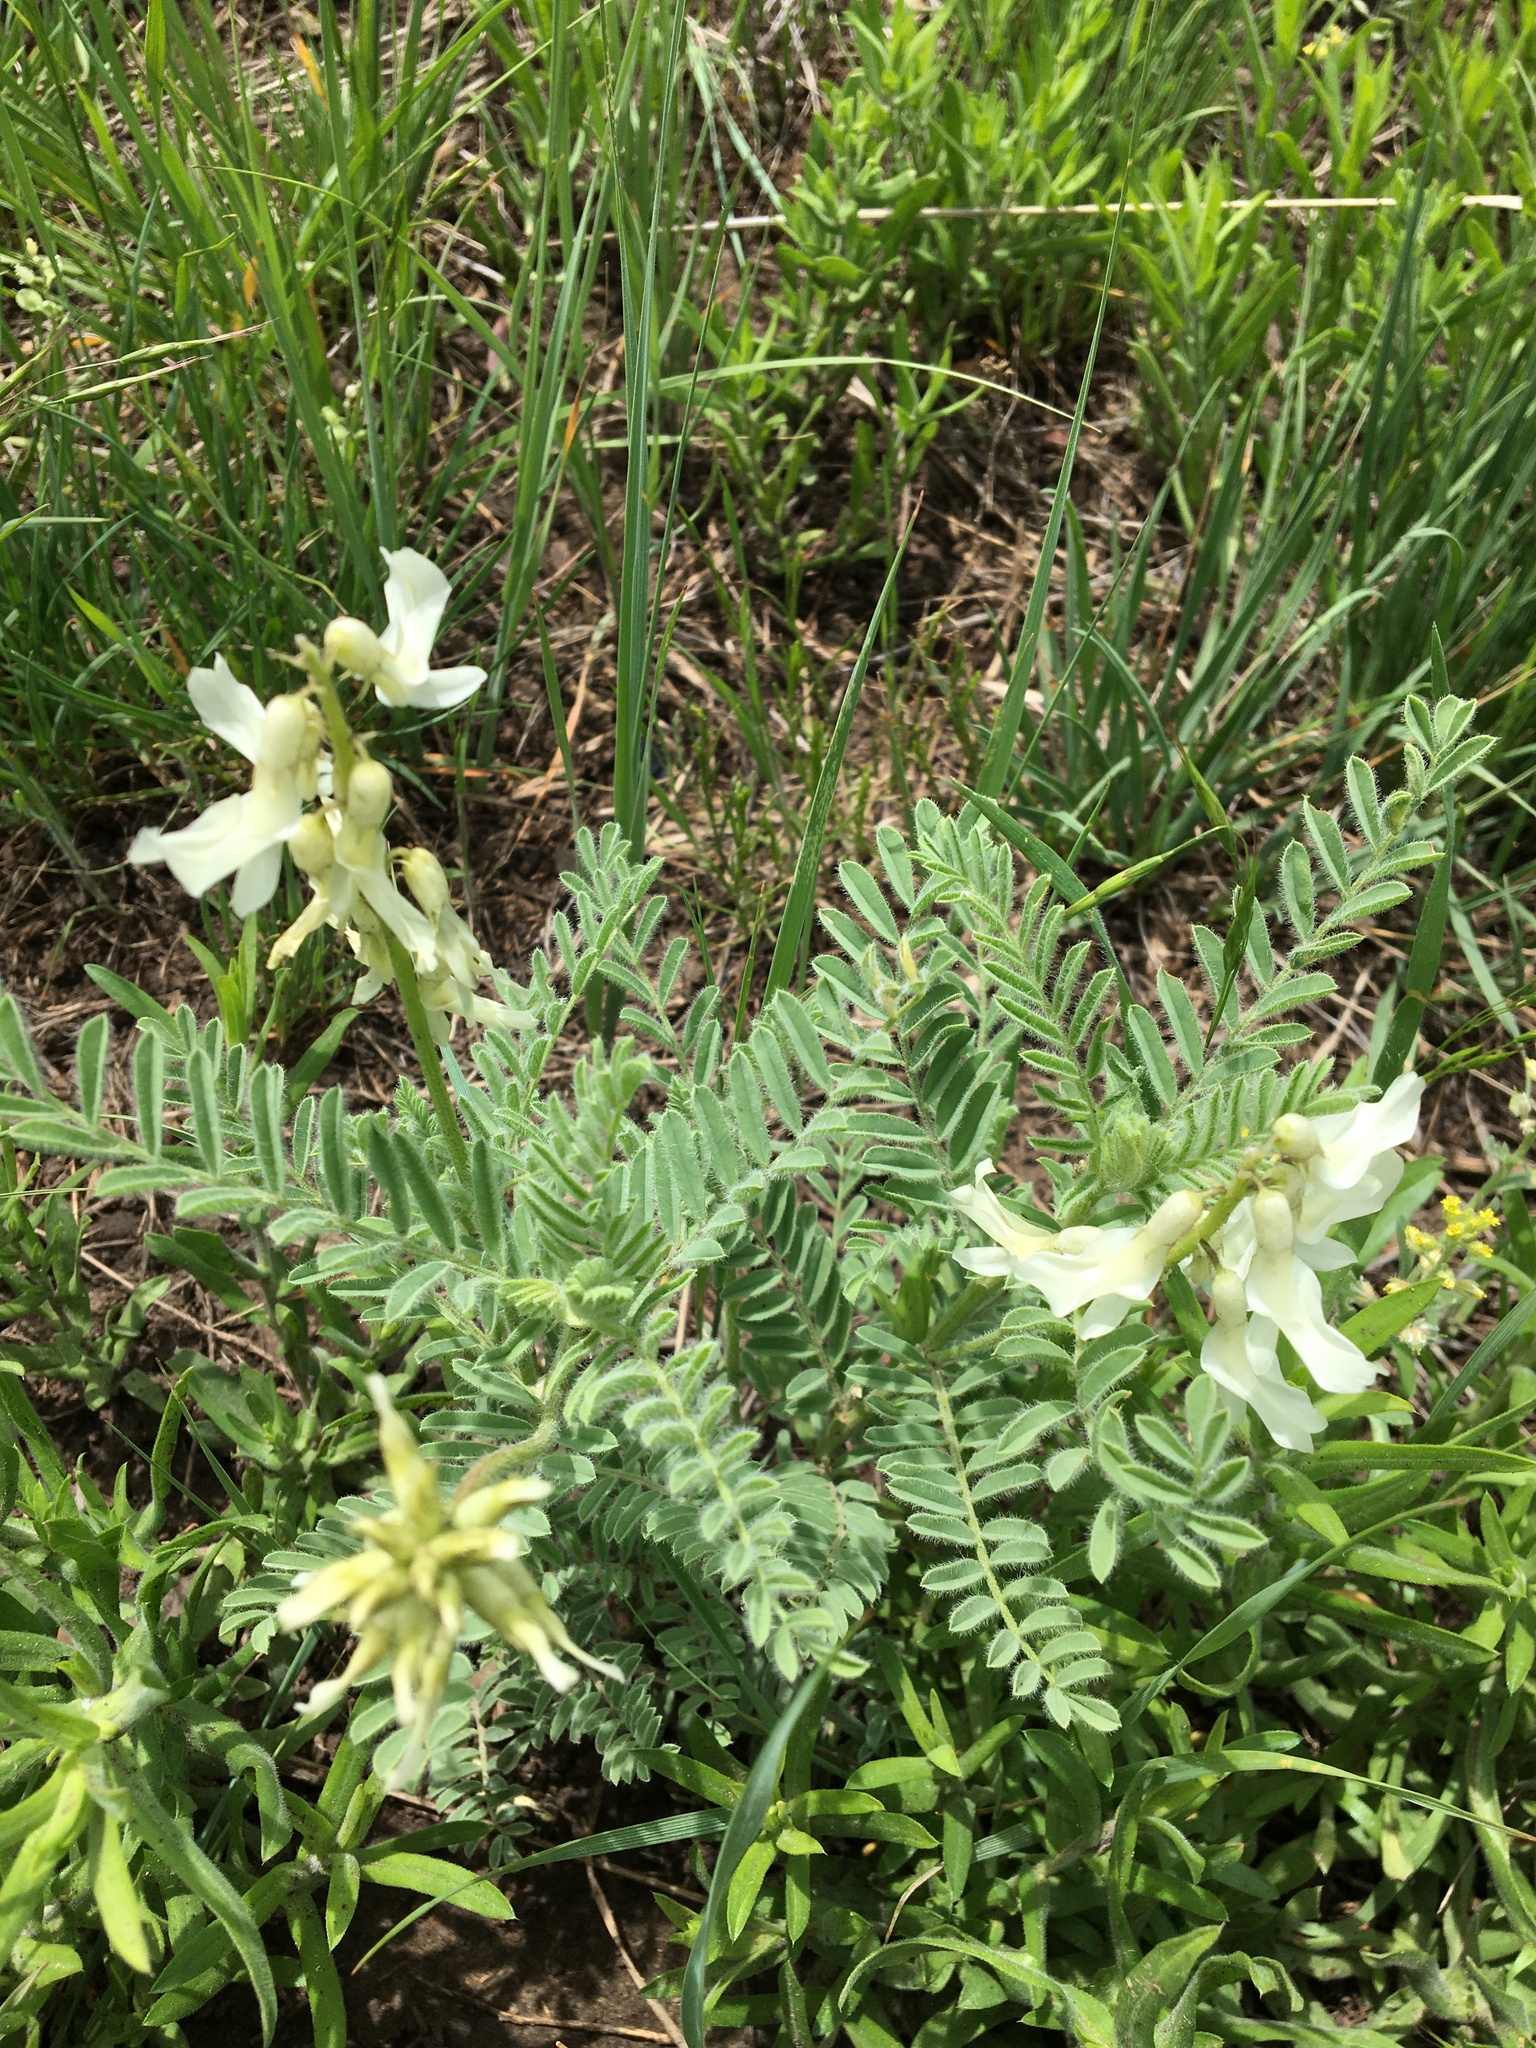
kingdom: Plantae
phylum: Tracheophyta
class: Magnoliopsida
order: Fabales
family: Fabaceae
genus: Astragalus
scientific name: Astragalus drummondii
